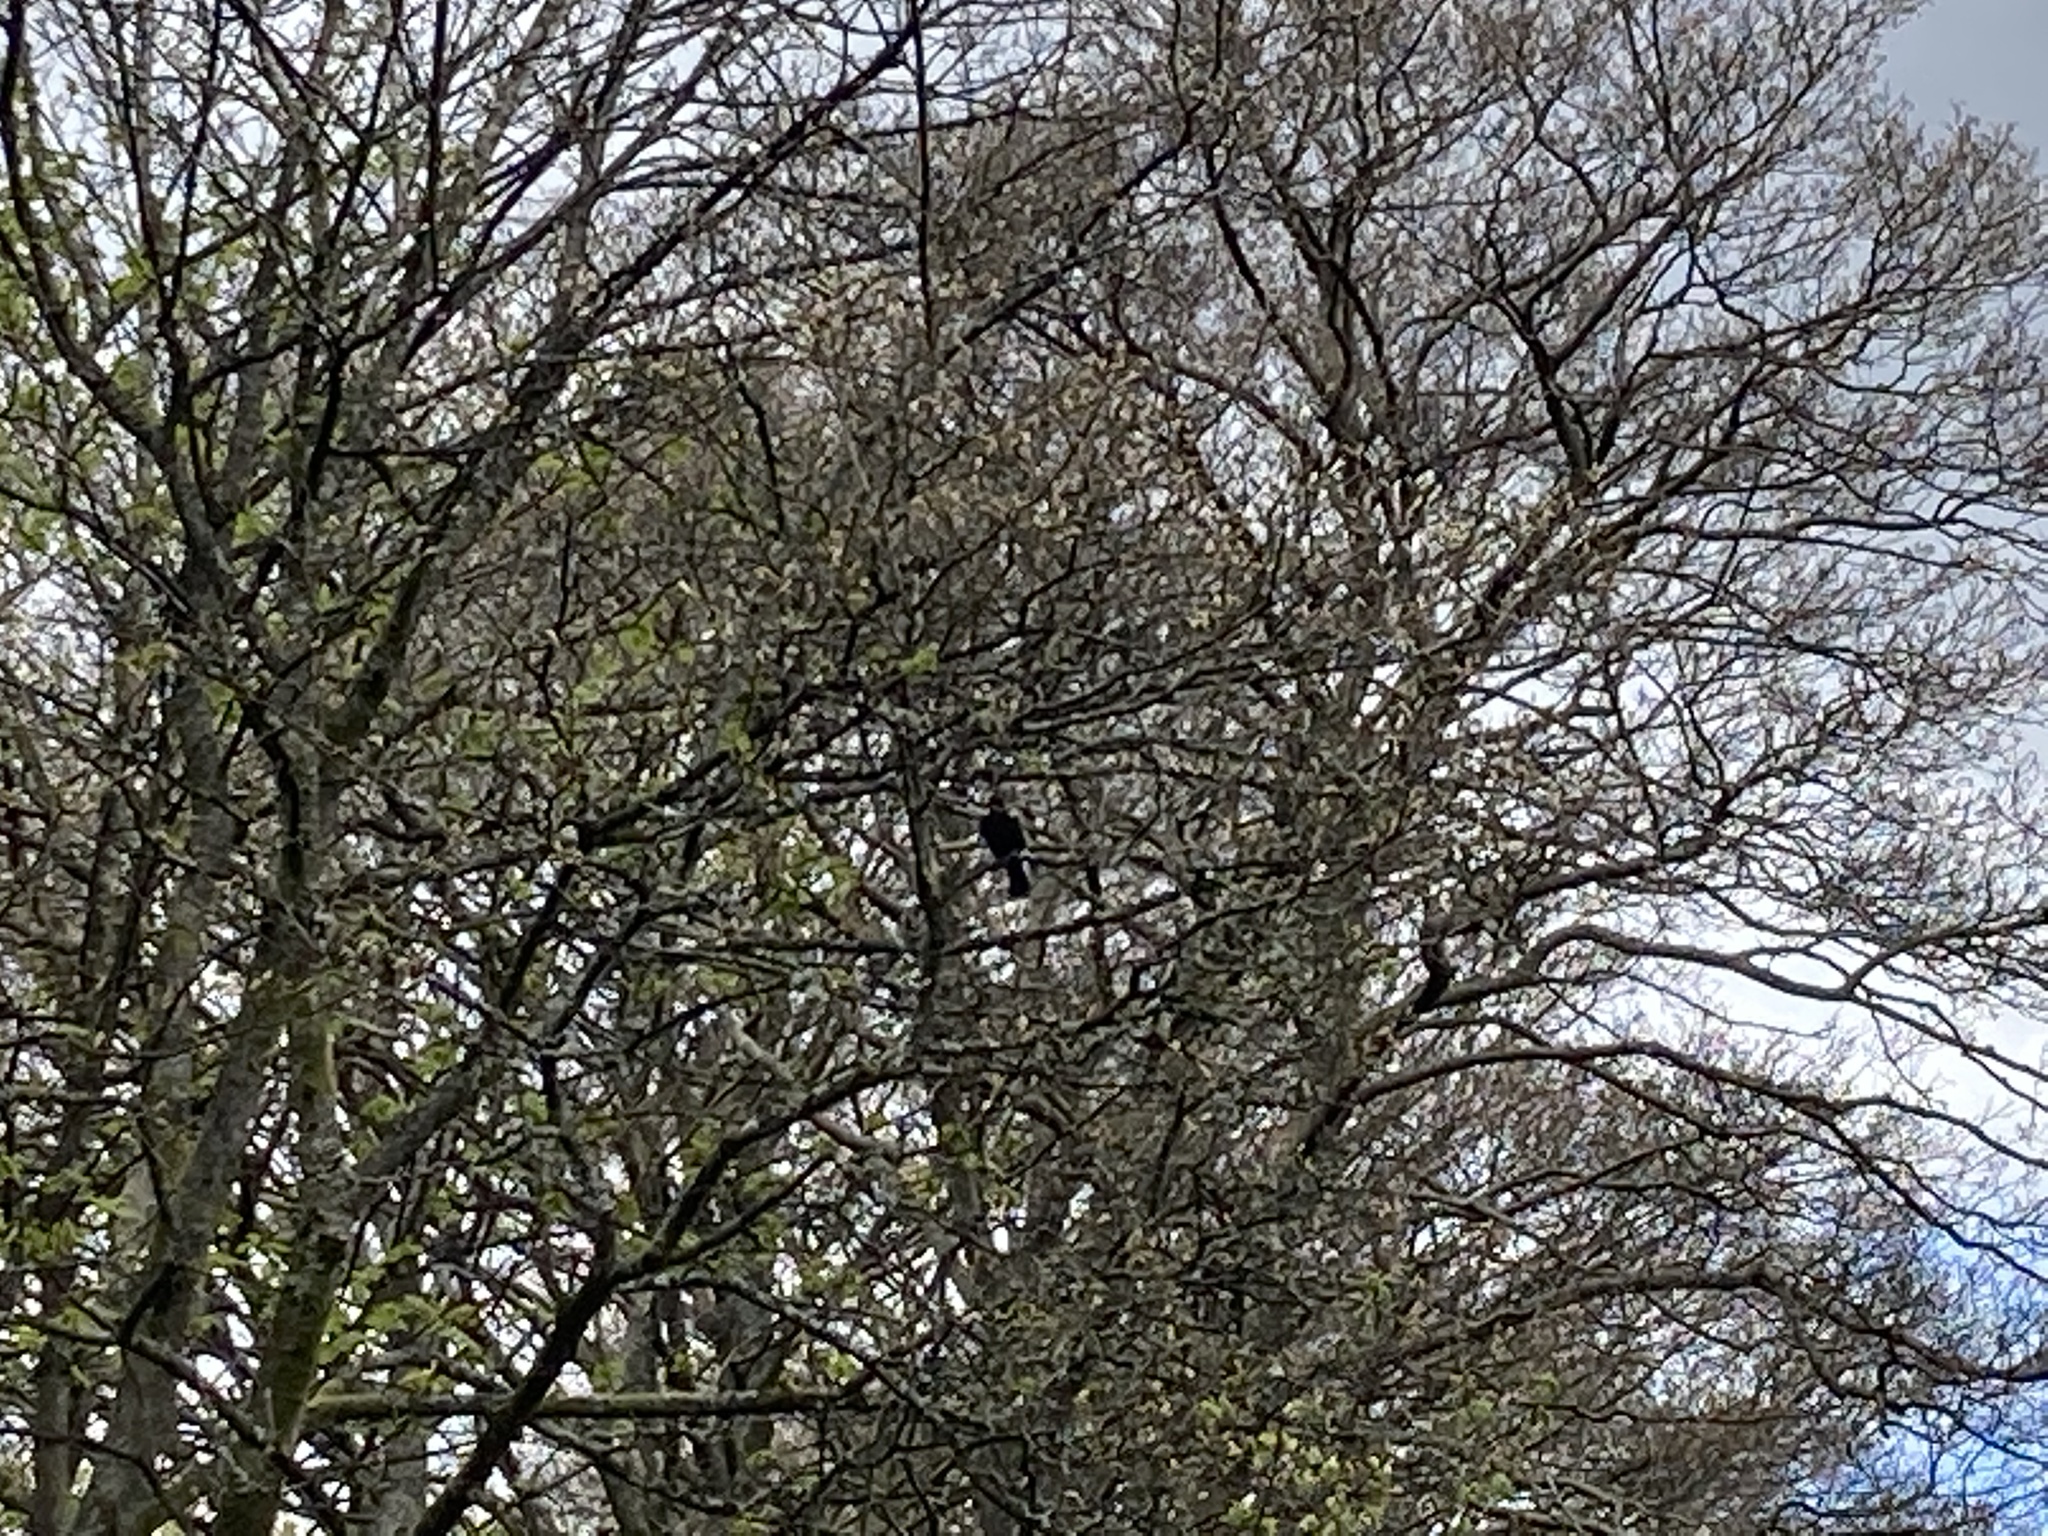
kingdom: Animalia
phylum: Chordata
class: Aves
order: Passeriformes
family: Turdidae
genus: Turdus
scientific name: Turdus merula
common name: Common blackbird
